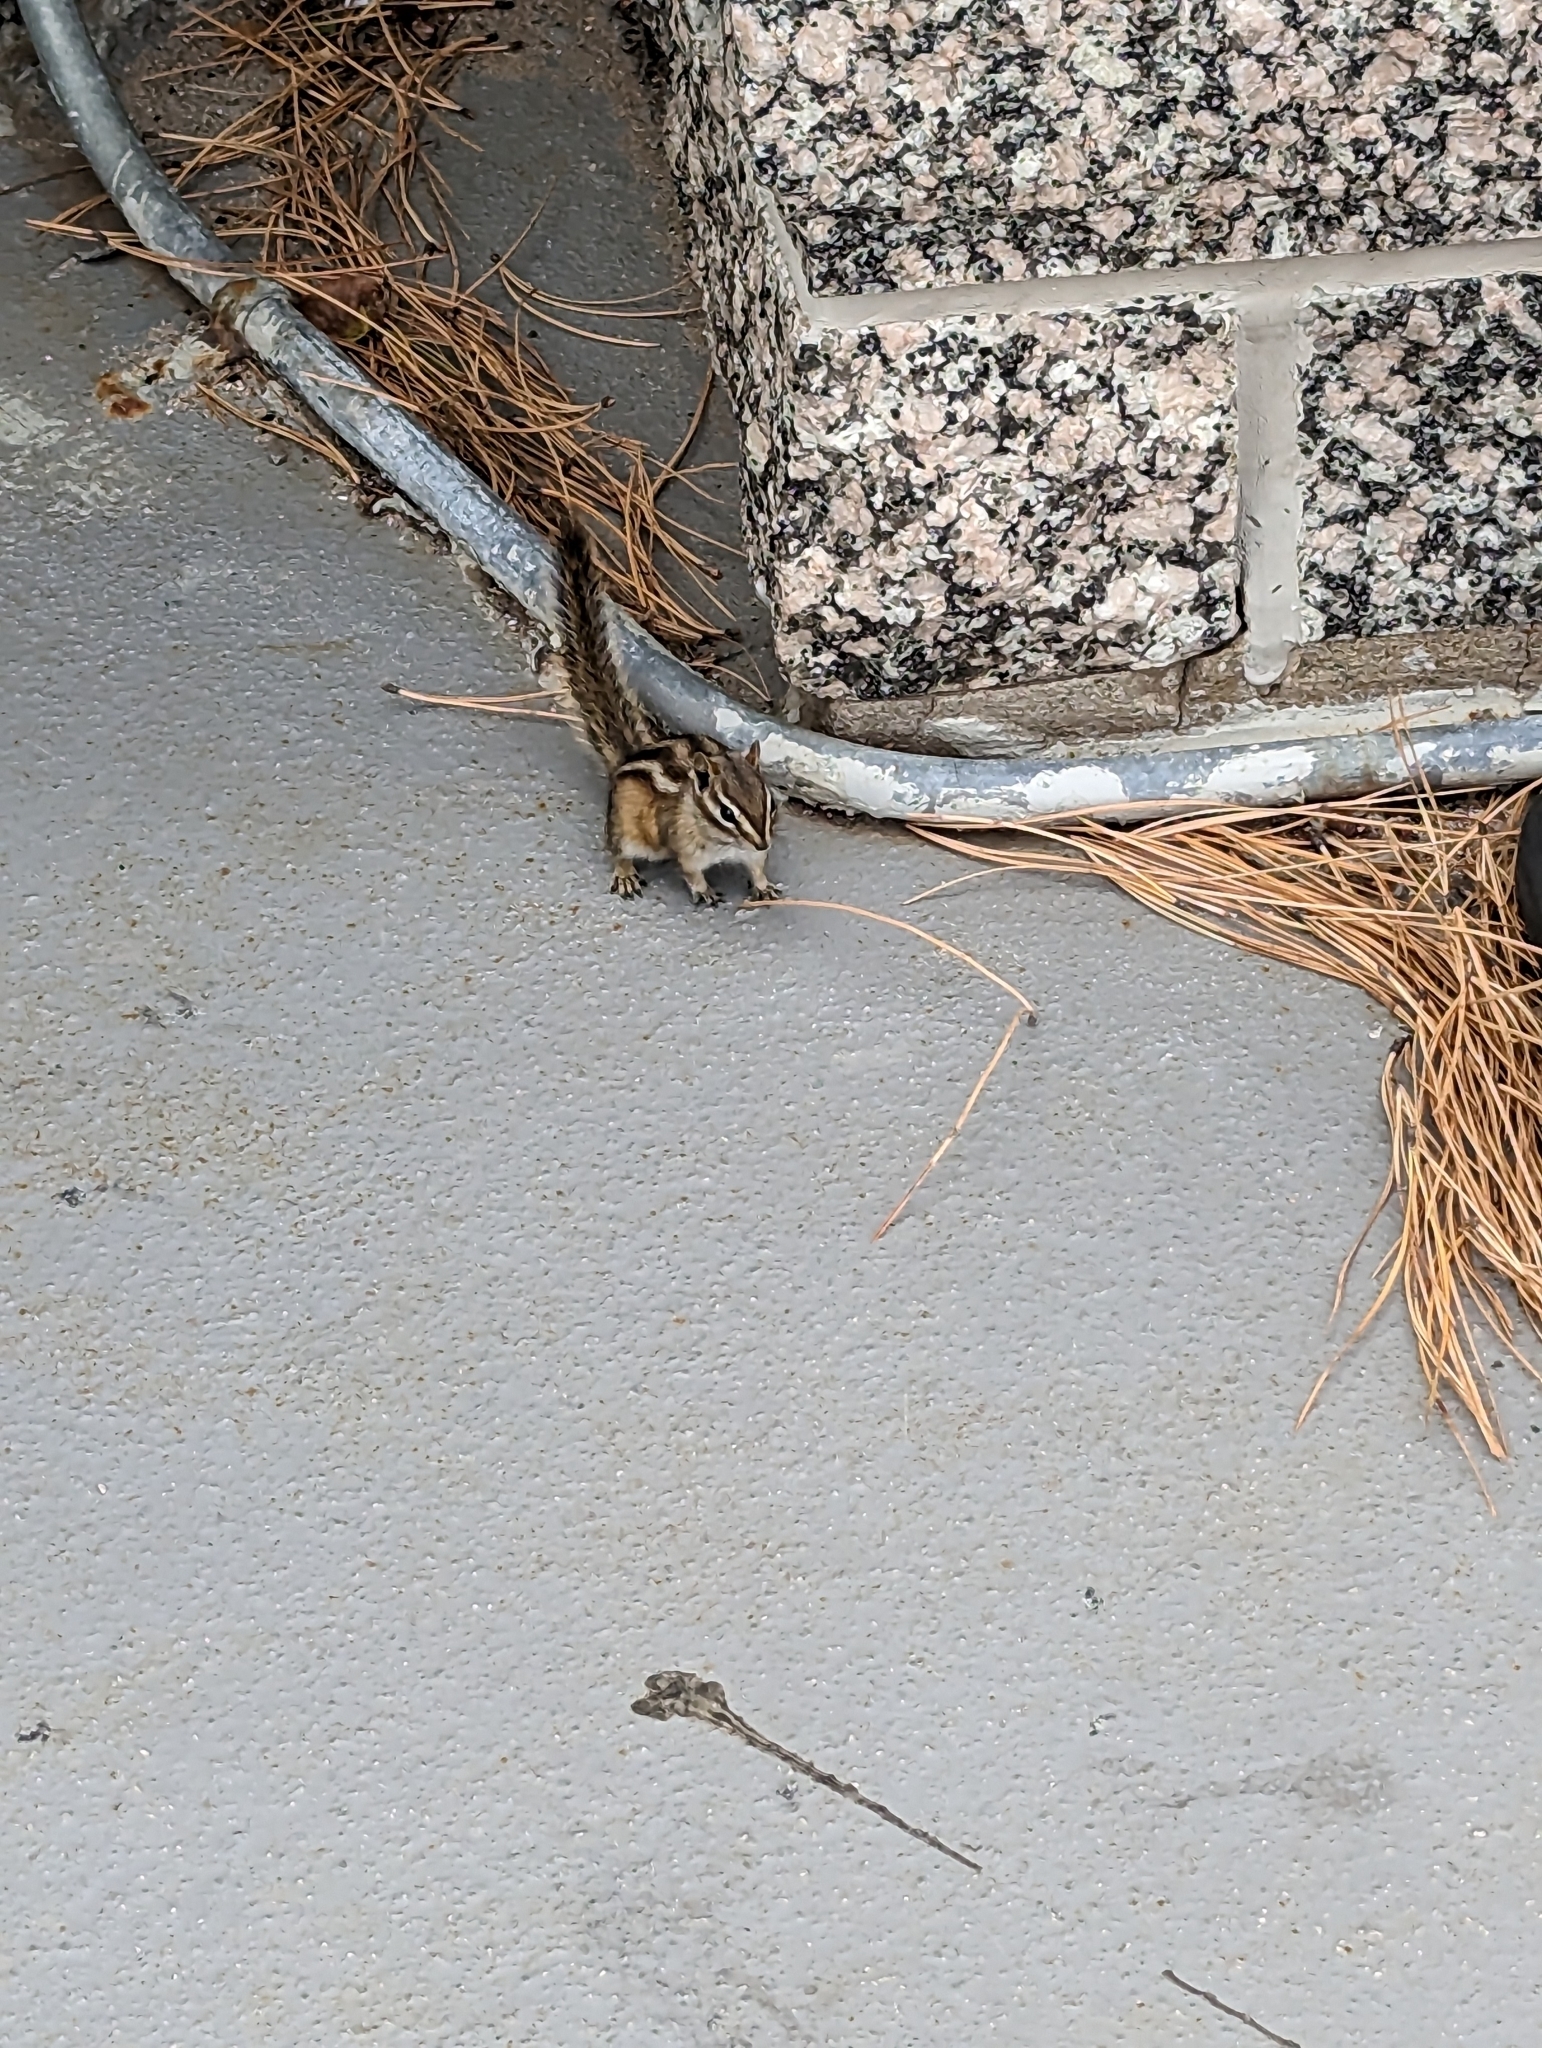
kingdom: Animalia
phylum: Chordata
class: Mammalia
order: Rodentia
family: Sciuridae
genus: Tamias
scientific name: Tamias minimus
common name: Least chipmunk
